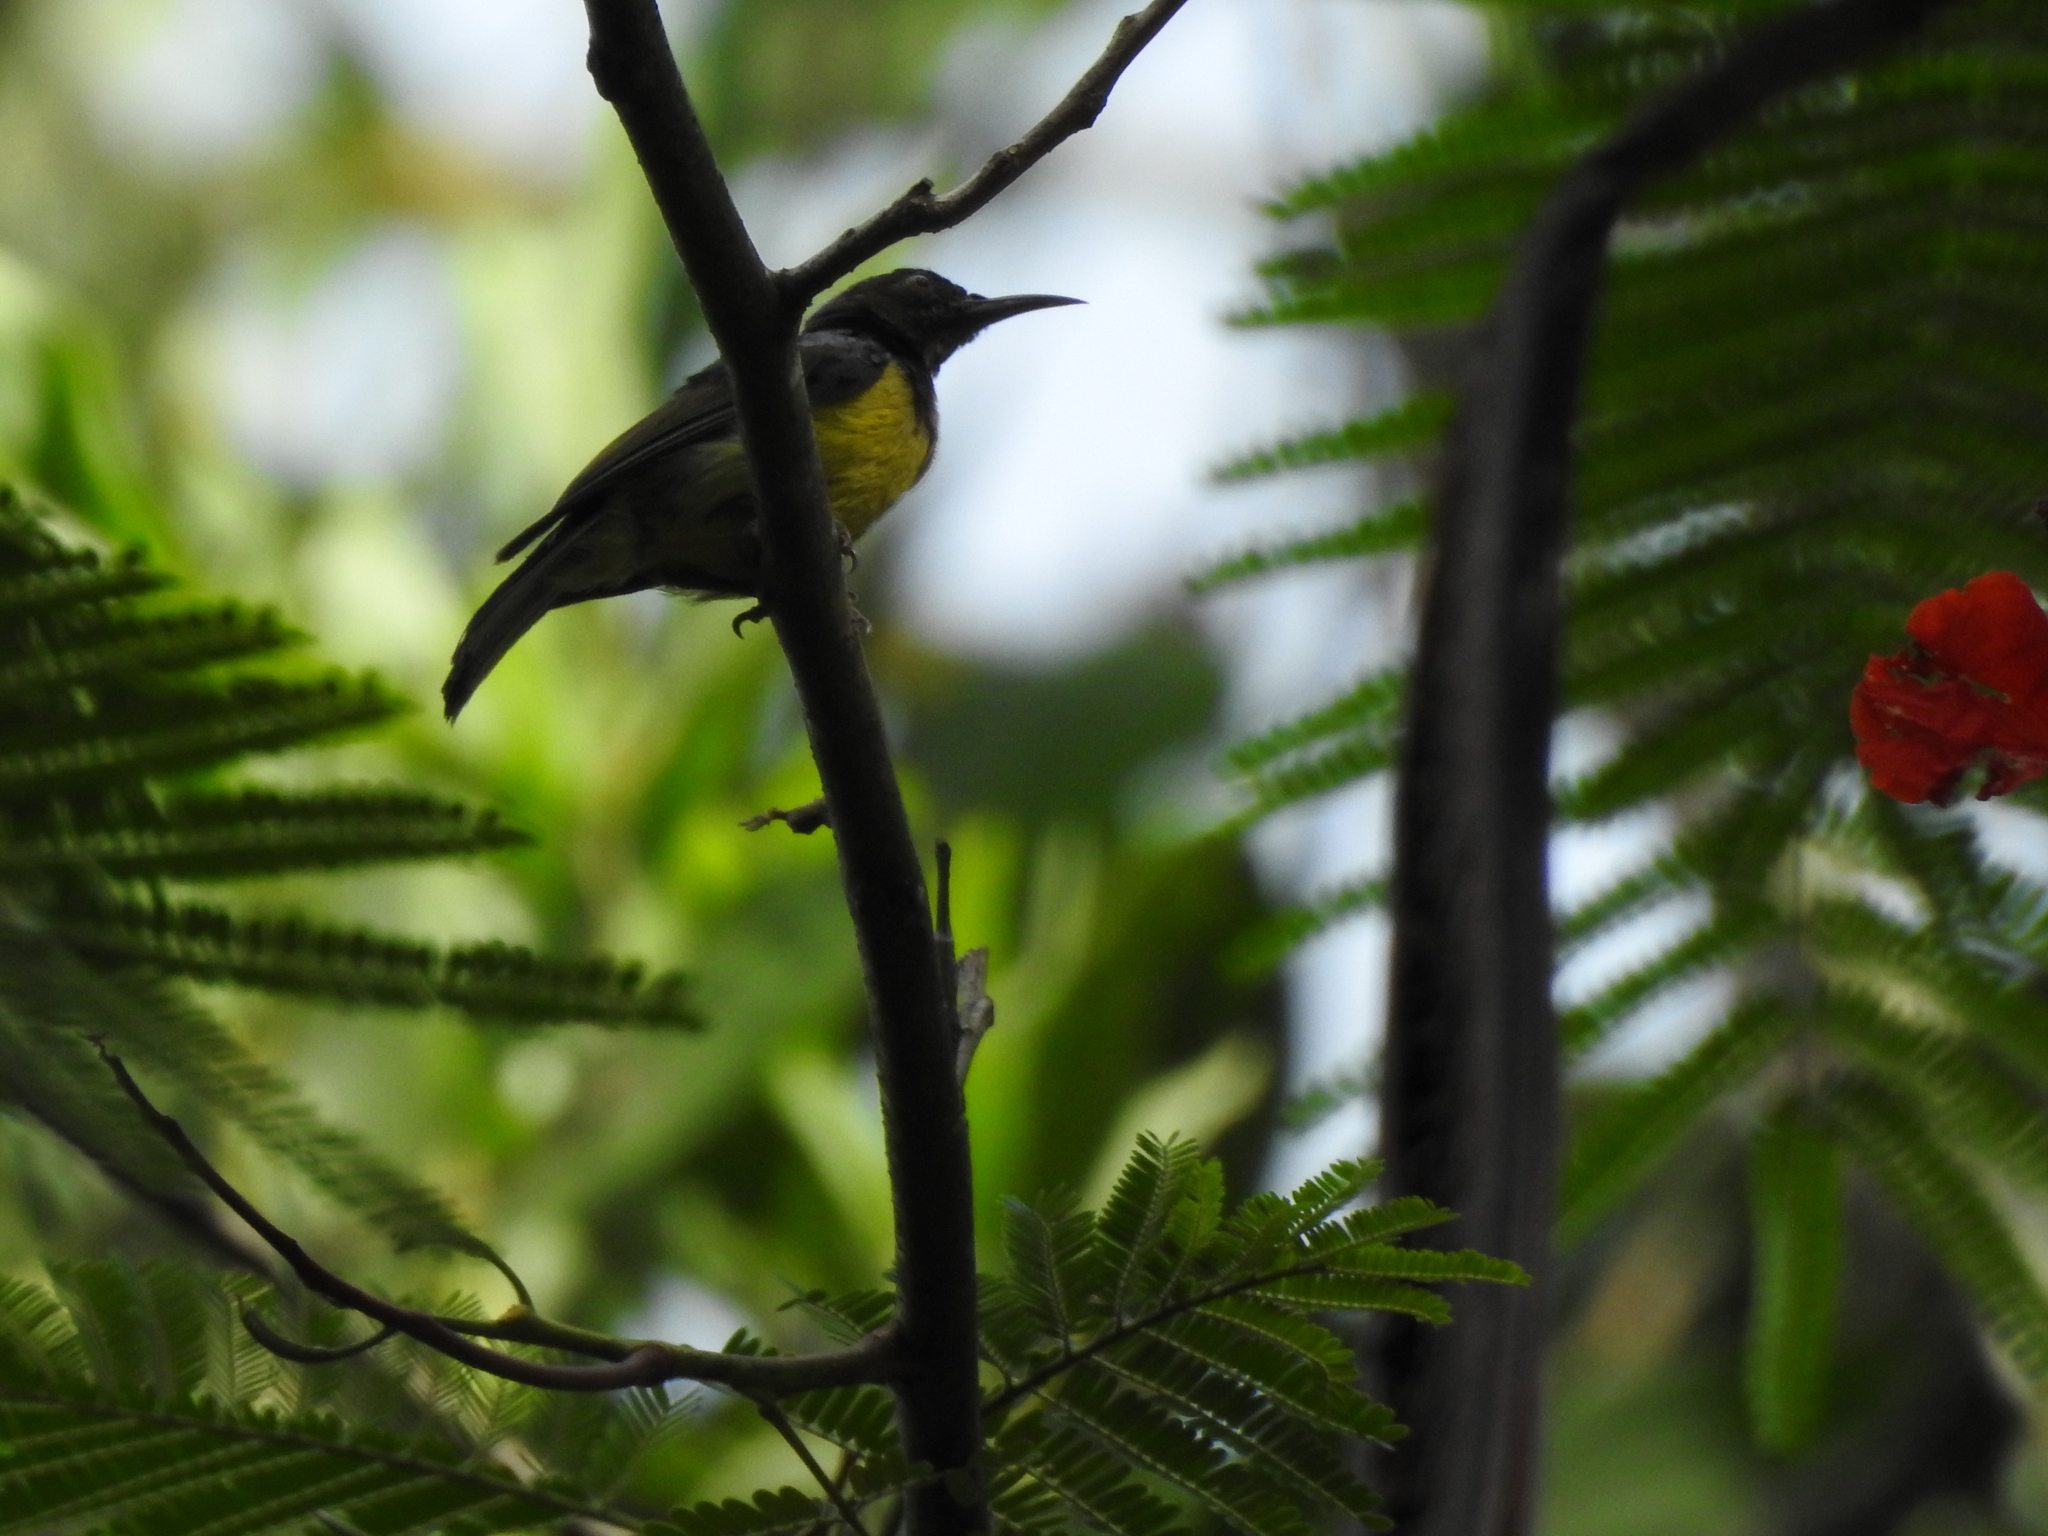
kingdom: Animalia
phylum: Chordata
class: Aves
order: Passeriformes
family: Nectariniidae
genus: Anthreptes
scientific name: Anthreptes malacensis
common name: Brown-throated sunbird
